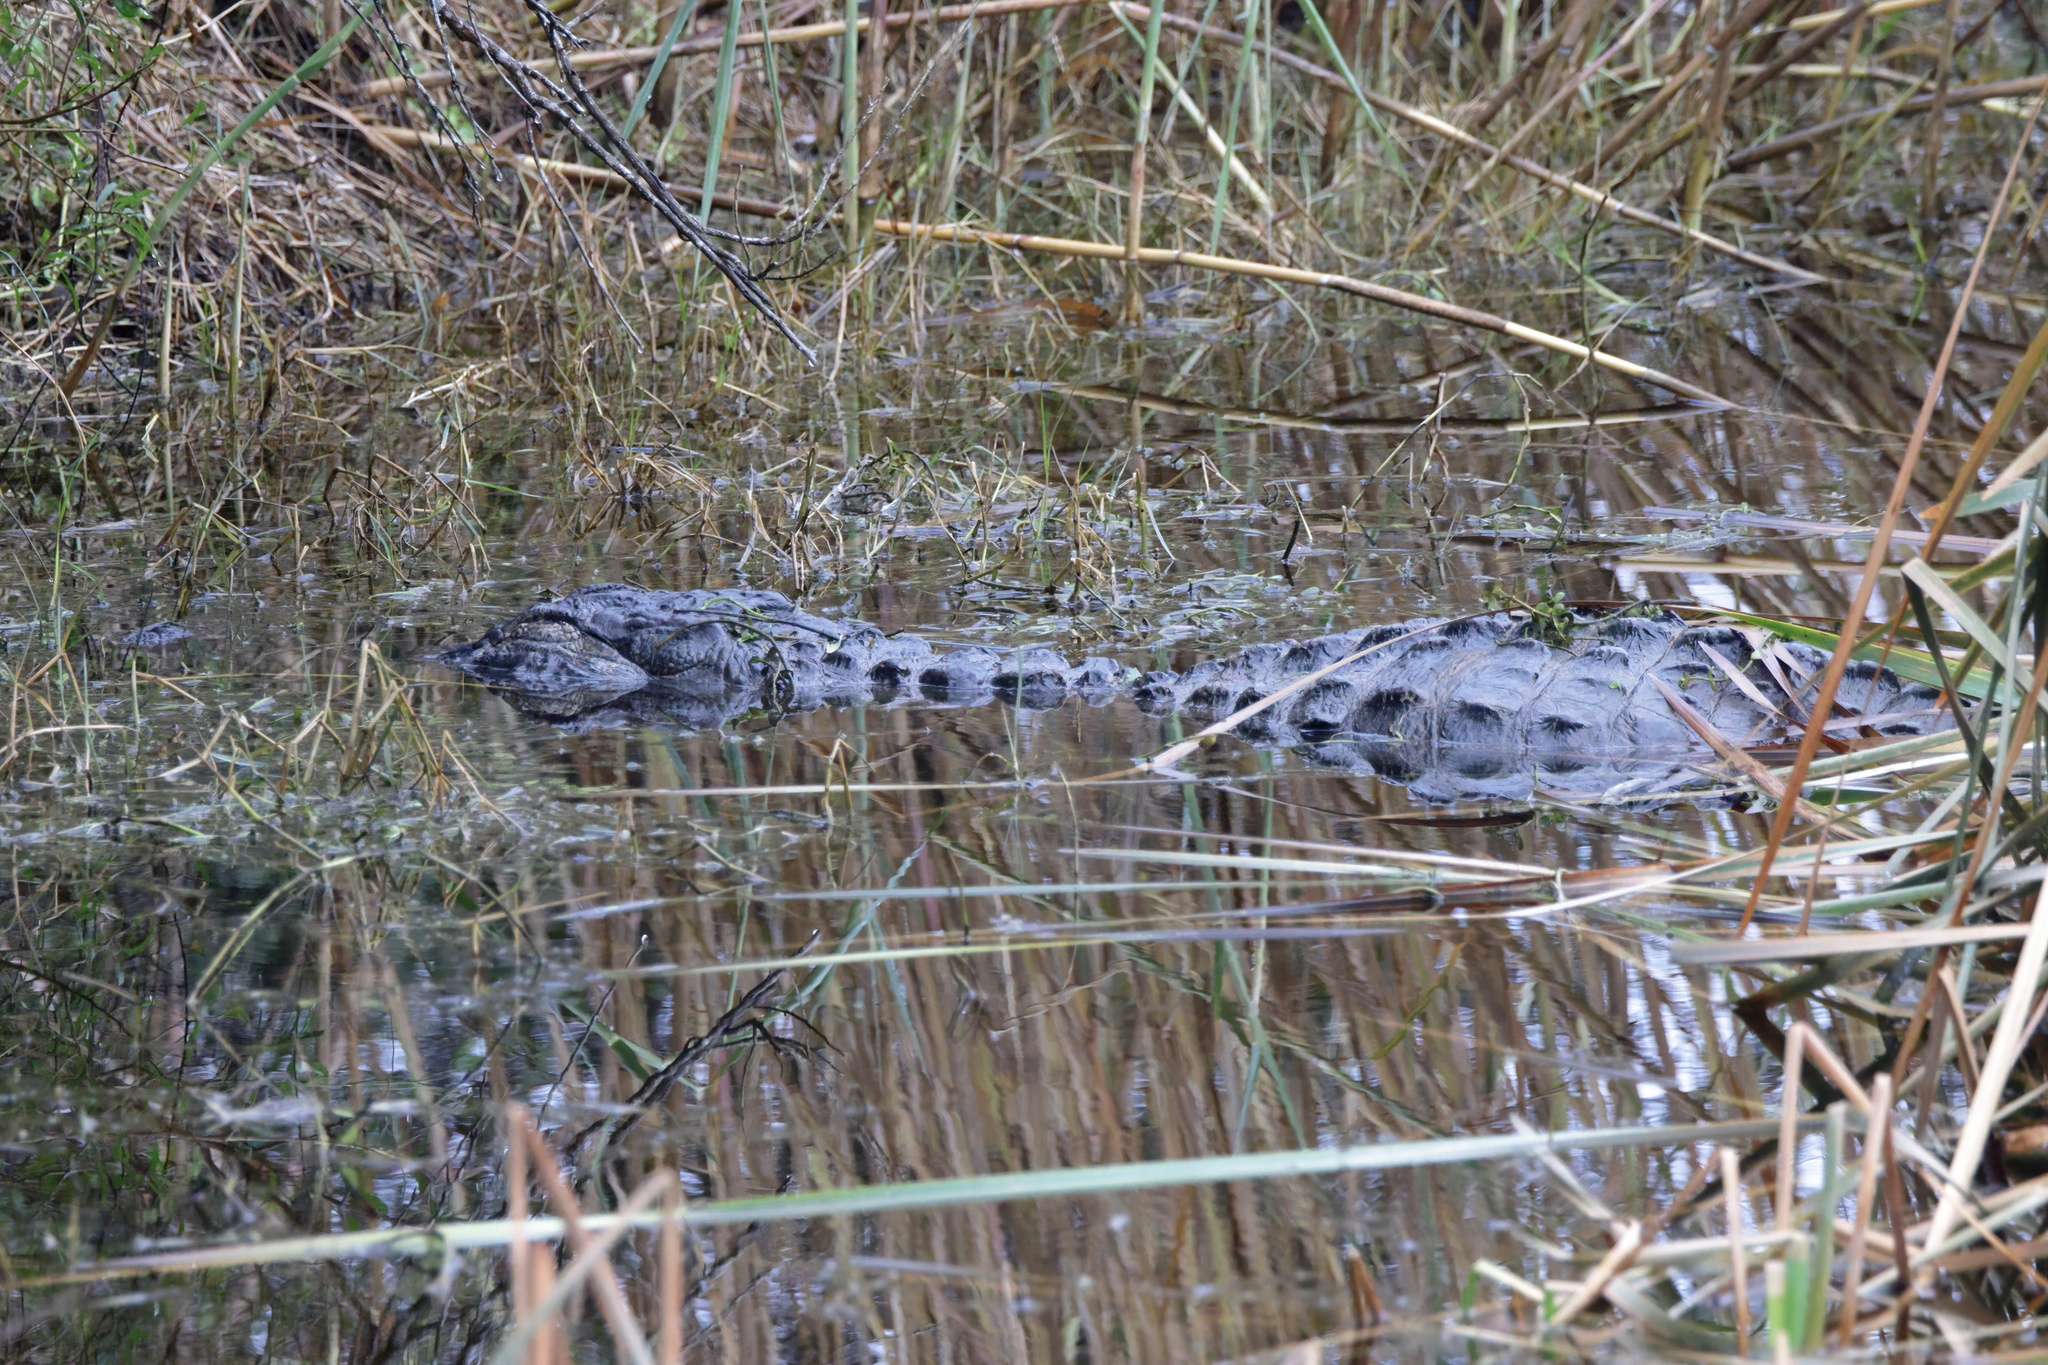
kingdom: Animalia
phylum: Chordata
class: Crocodylia
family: Alligatoridae
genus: Alligator
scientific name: Alligator mississippiensis
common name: American alligator
